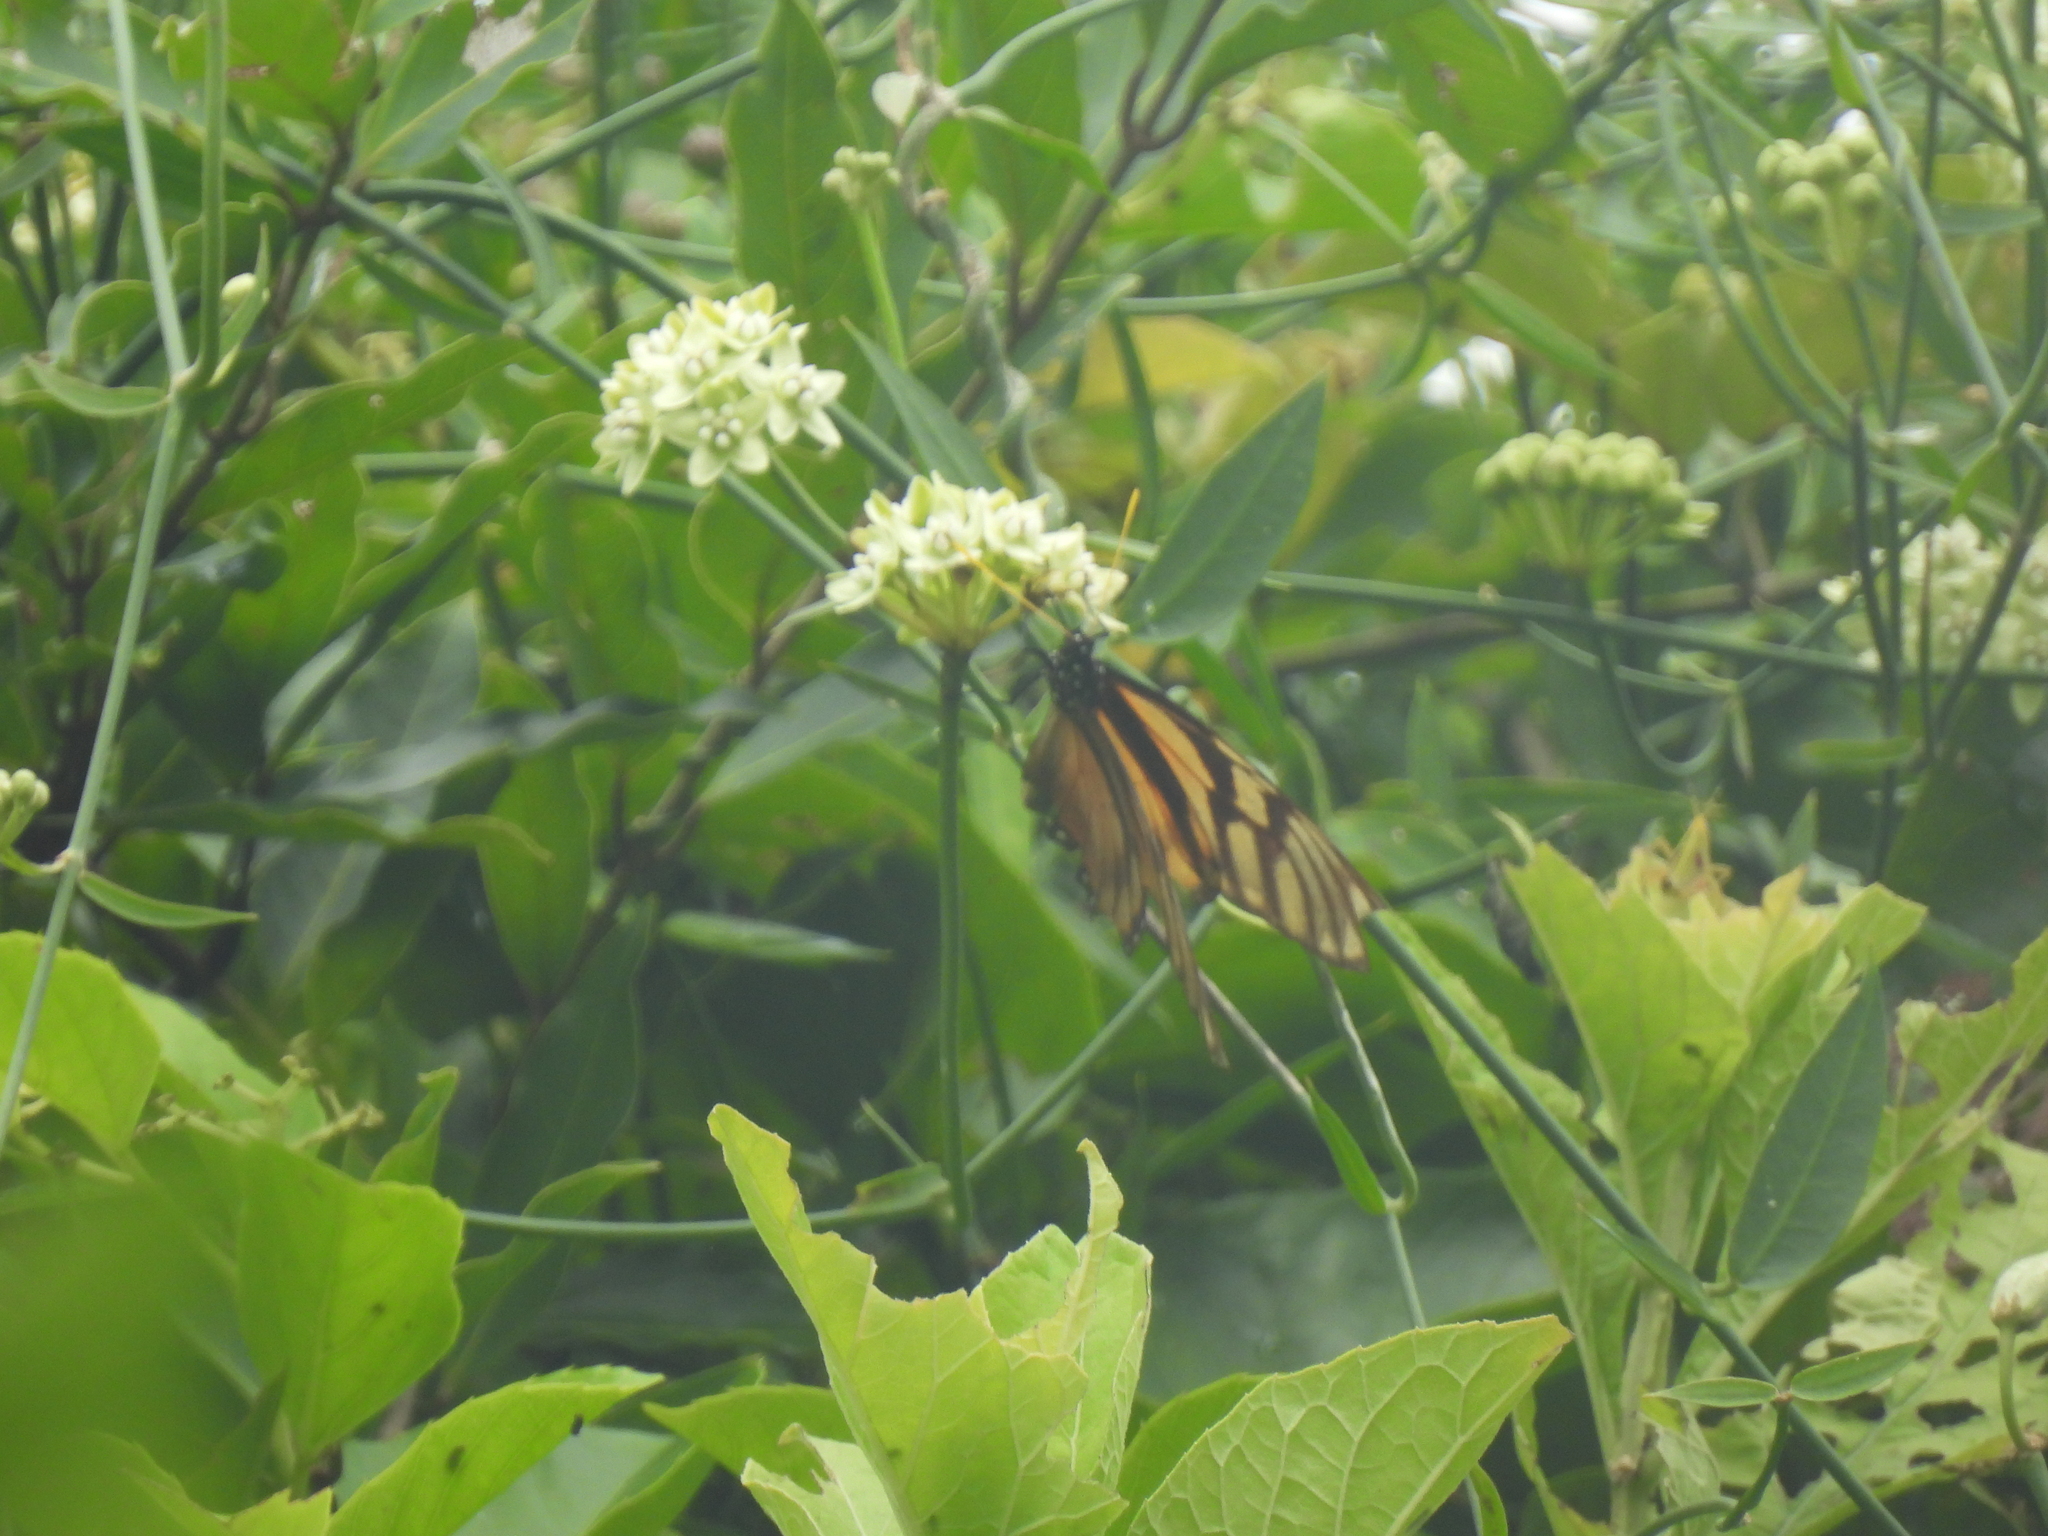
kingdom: Animalia
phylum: Arthropoda
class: Insecta
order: Lepidoptera
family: Nymphalidae
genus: Lycorea
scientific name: Lycorea ilione
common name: Clearwing mimic-queen
